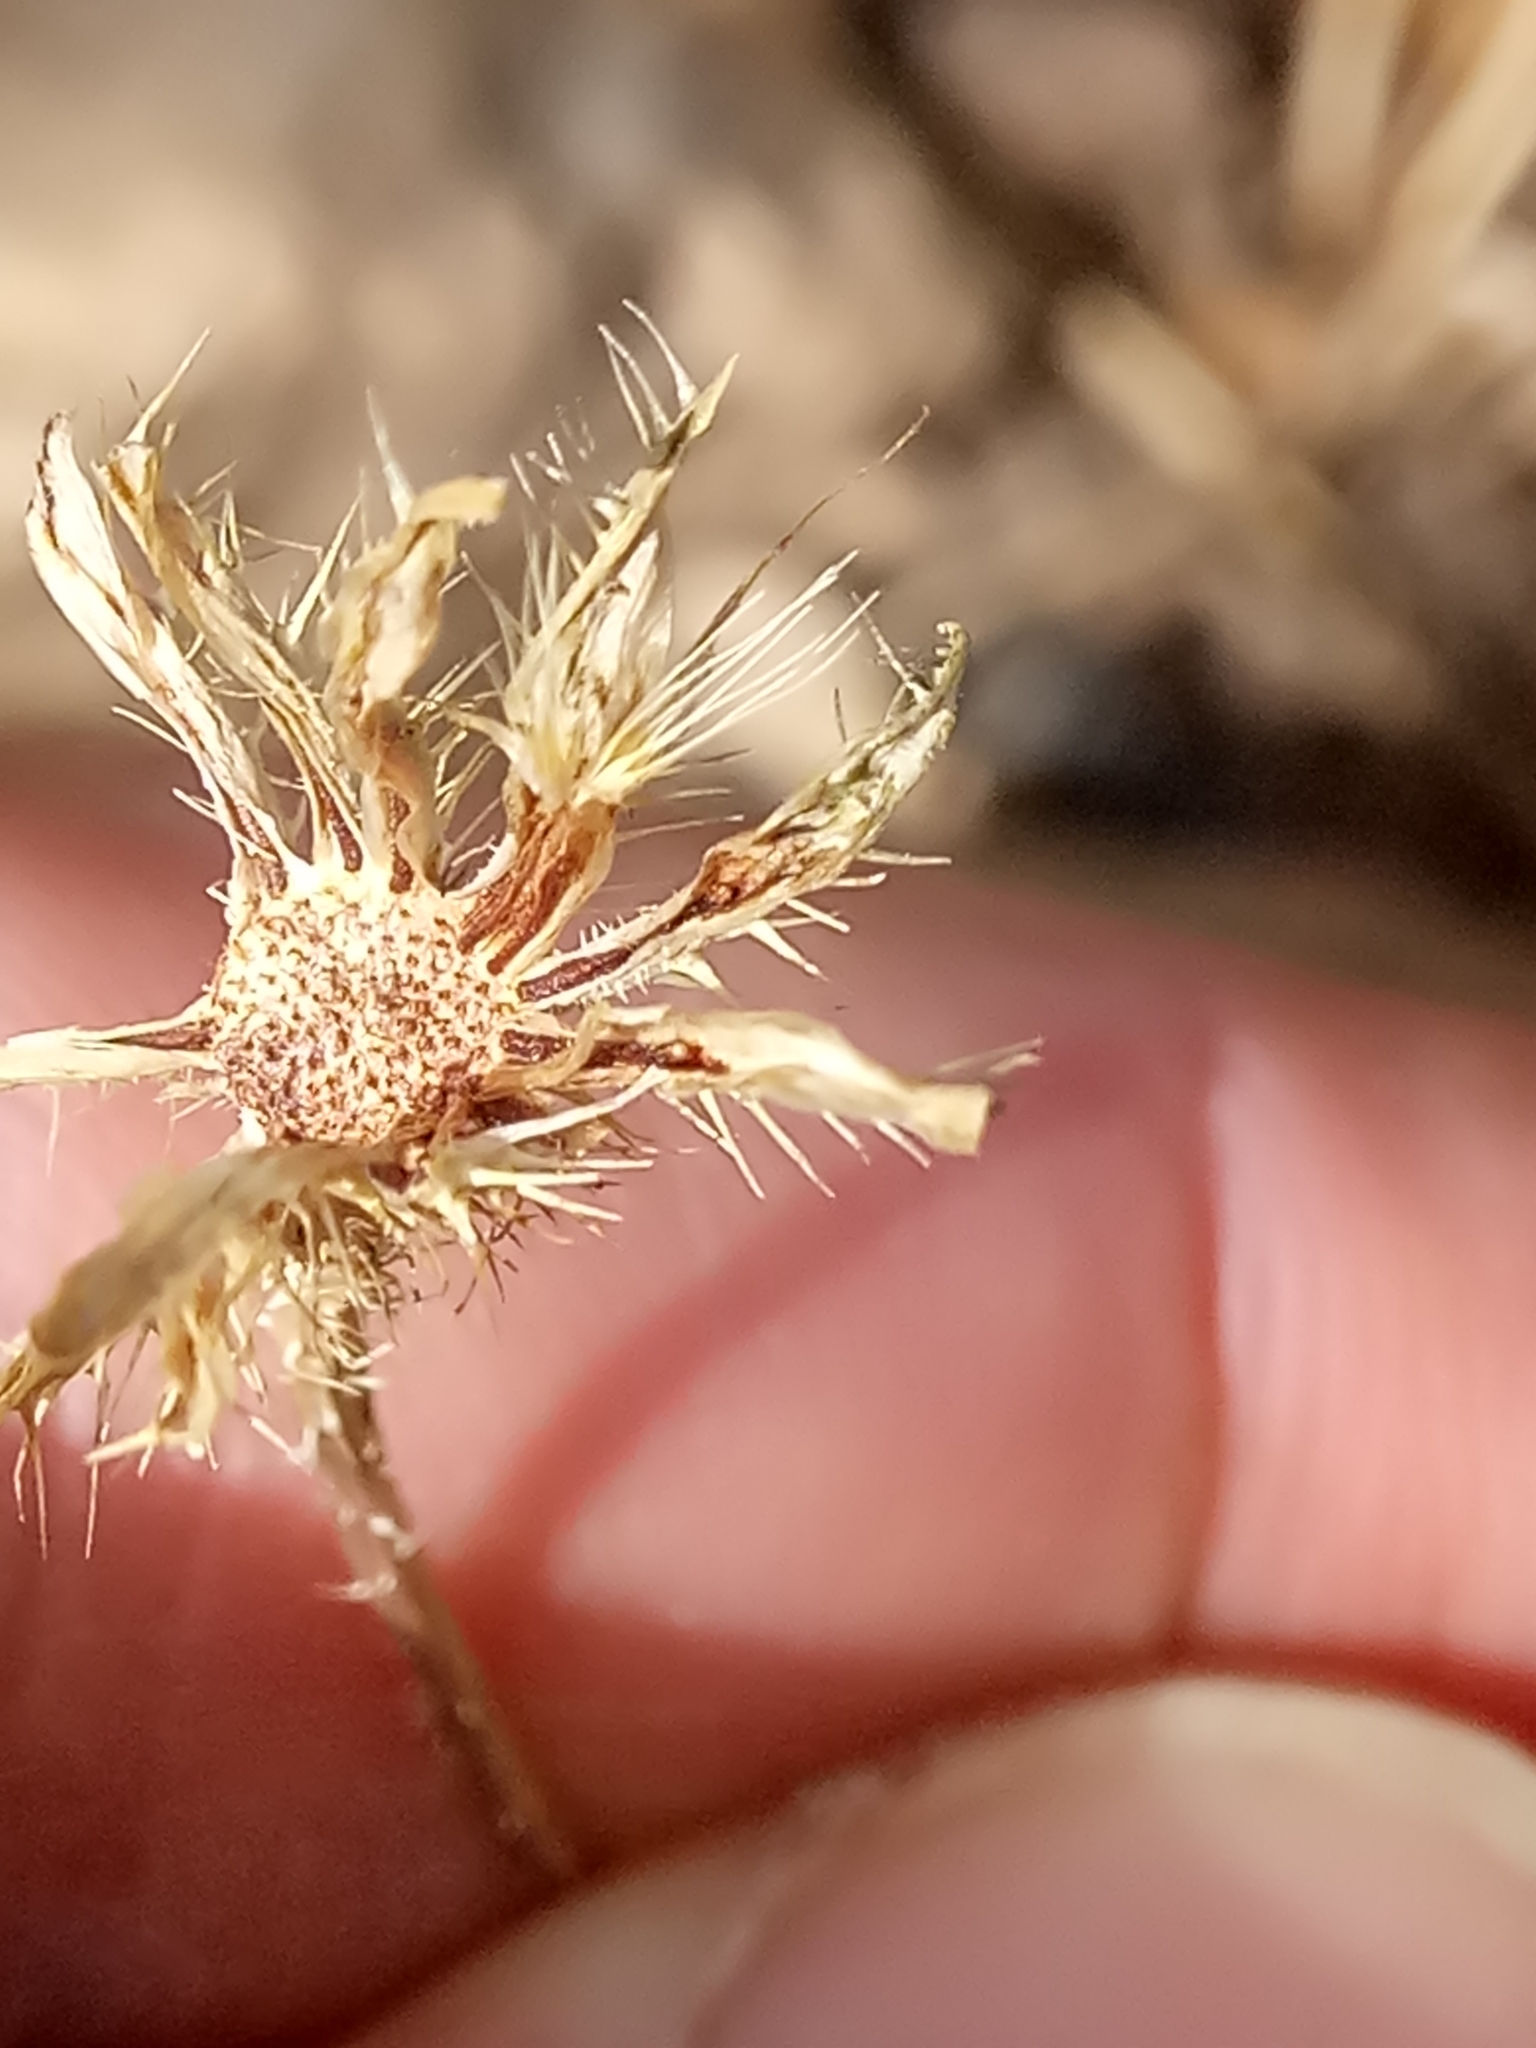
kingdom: Plantae
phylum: Tracheophyta
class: Magnoliopsida
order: Asterales
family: Asteraceae
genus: Achyrophorus
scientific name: Achyrophorus valdesii
